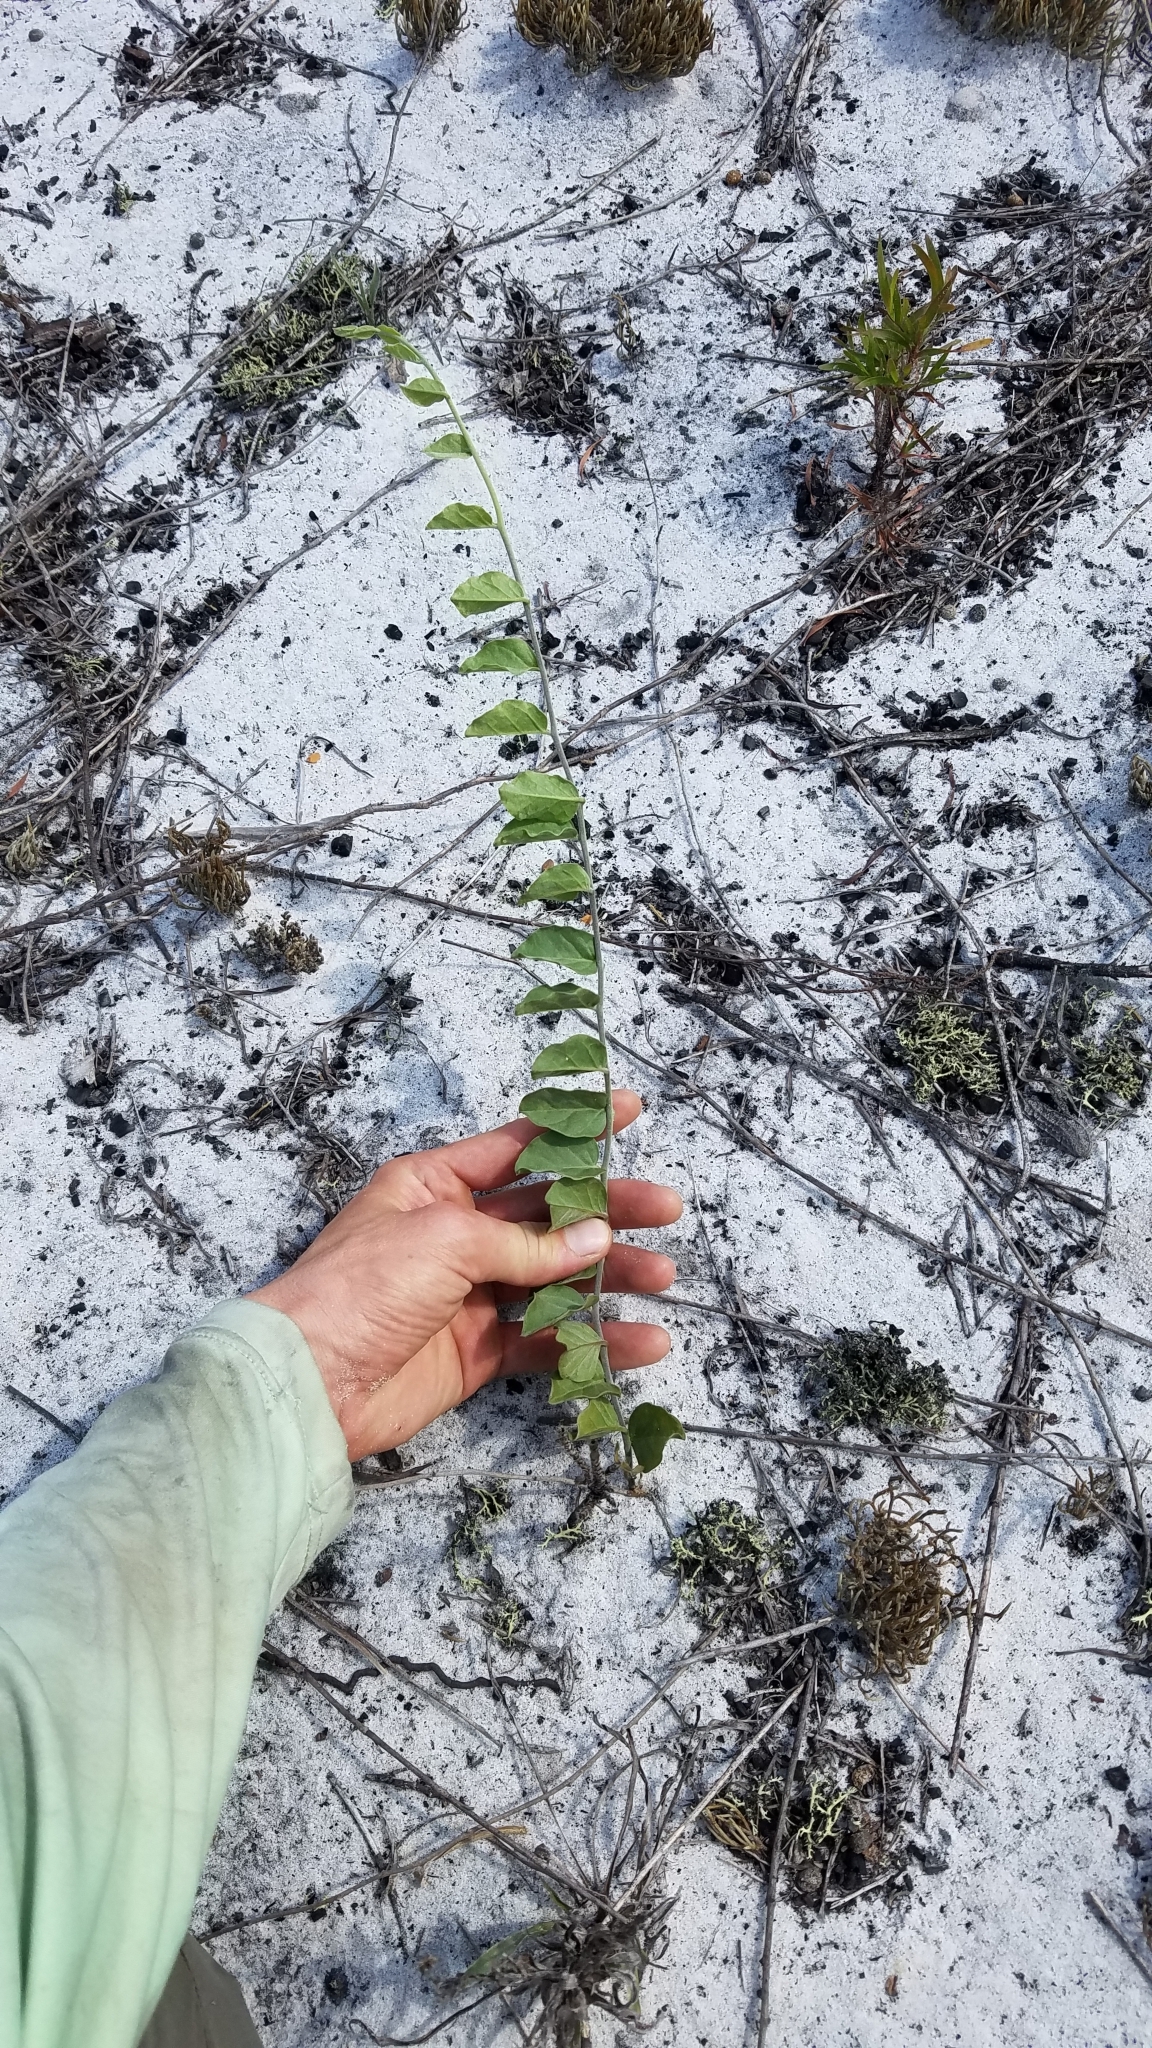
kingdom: Plantae
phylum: Tracheophyta
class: Magnoliopsida
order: Solanales
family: Convolvulaceae
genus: Bonamia
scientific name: Bonamia grandiflora
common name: Florida bonamia
